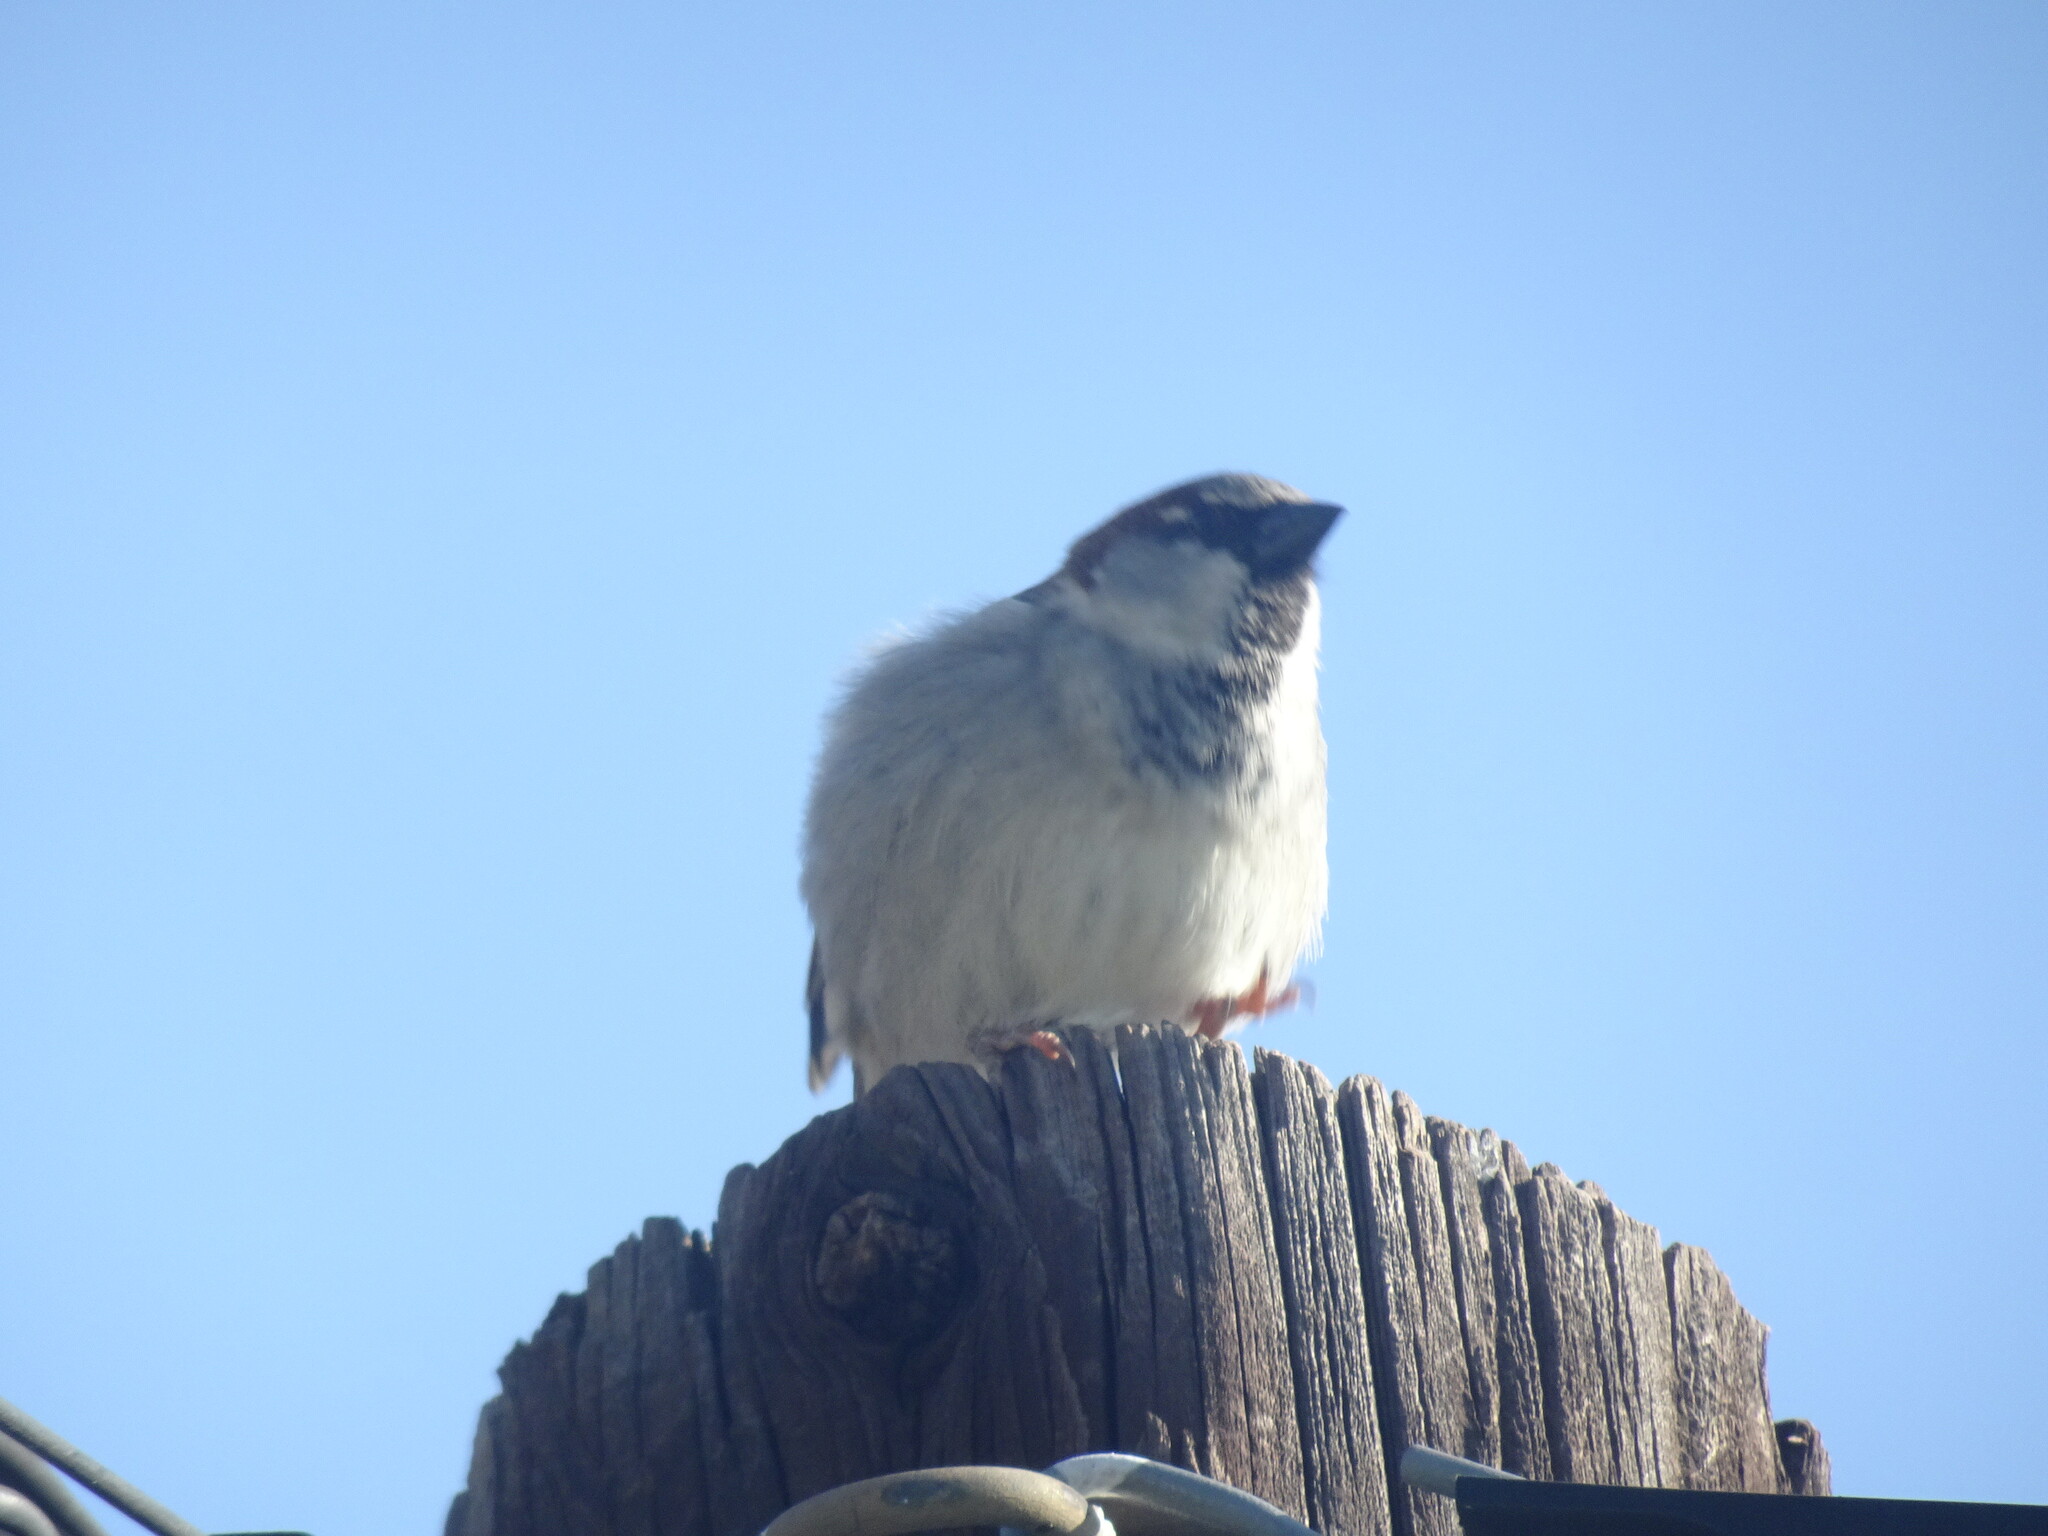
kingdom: Animalia
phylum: Chordata
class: Aves
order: Passeriformes
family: Passeridae
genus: Passer
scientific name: Passer domesticus
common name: House sparrow
